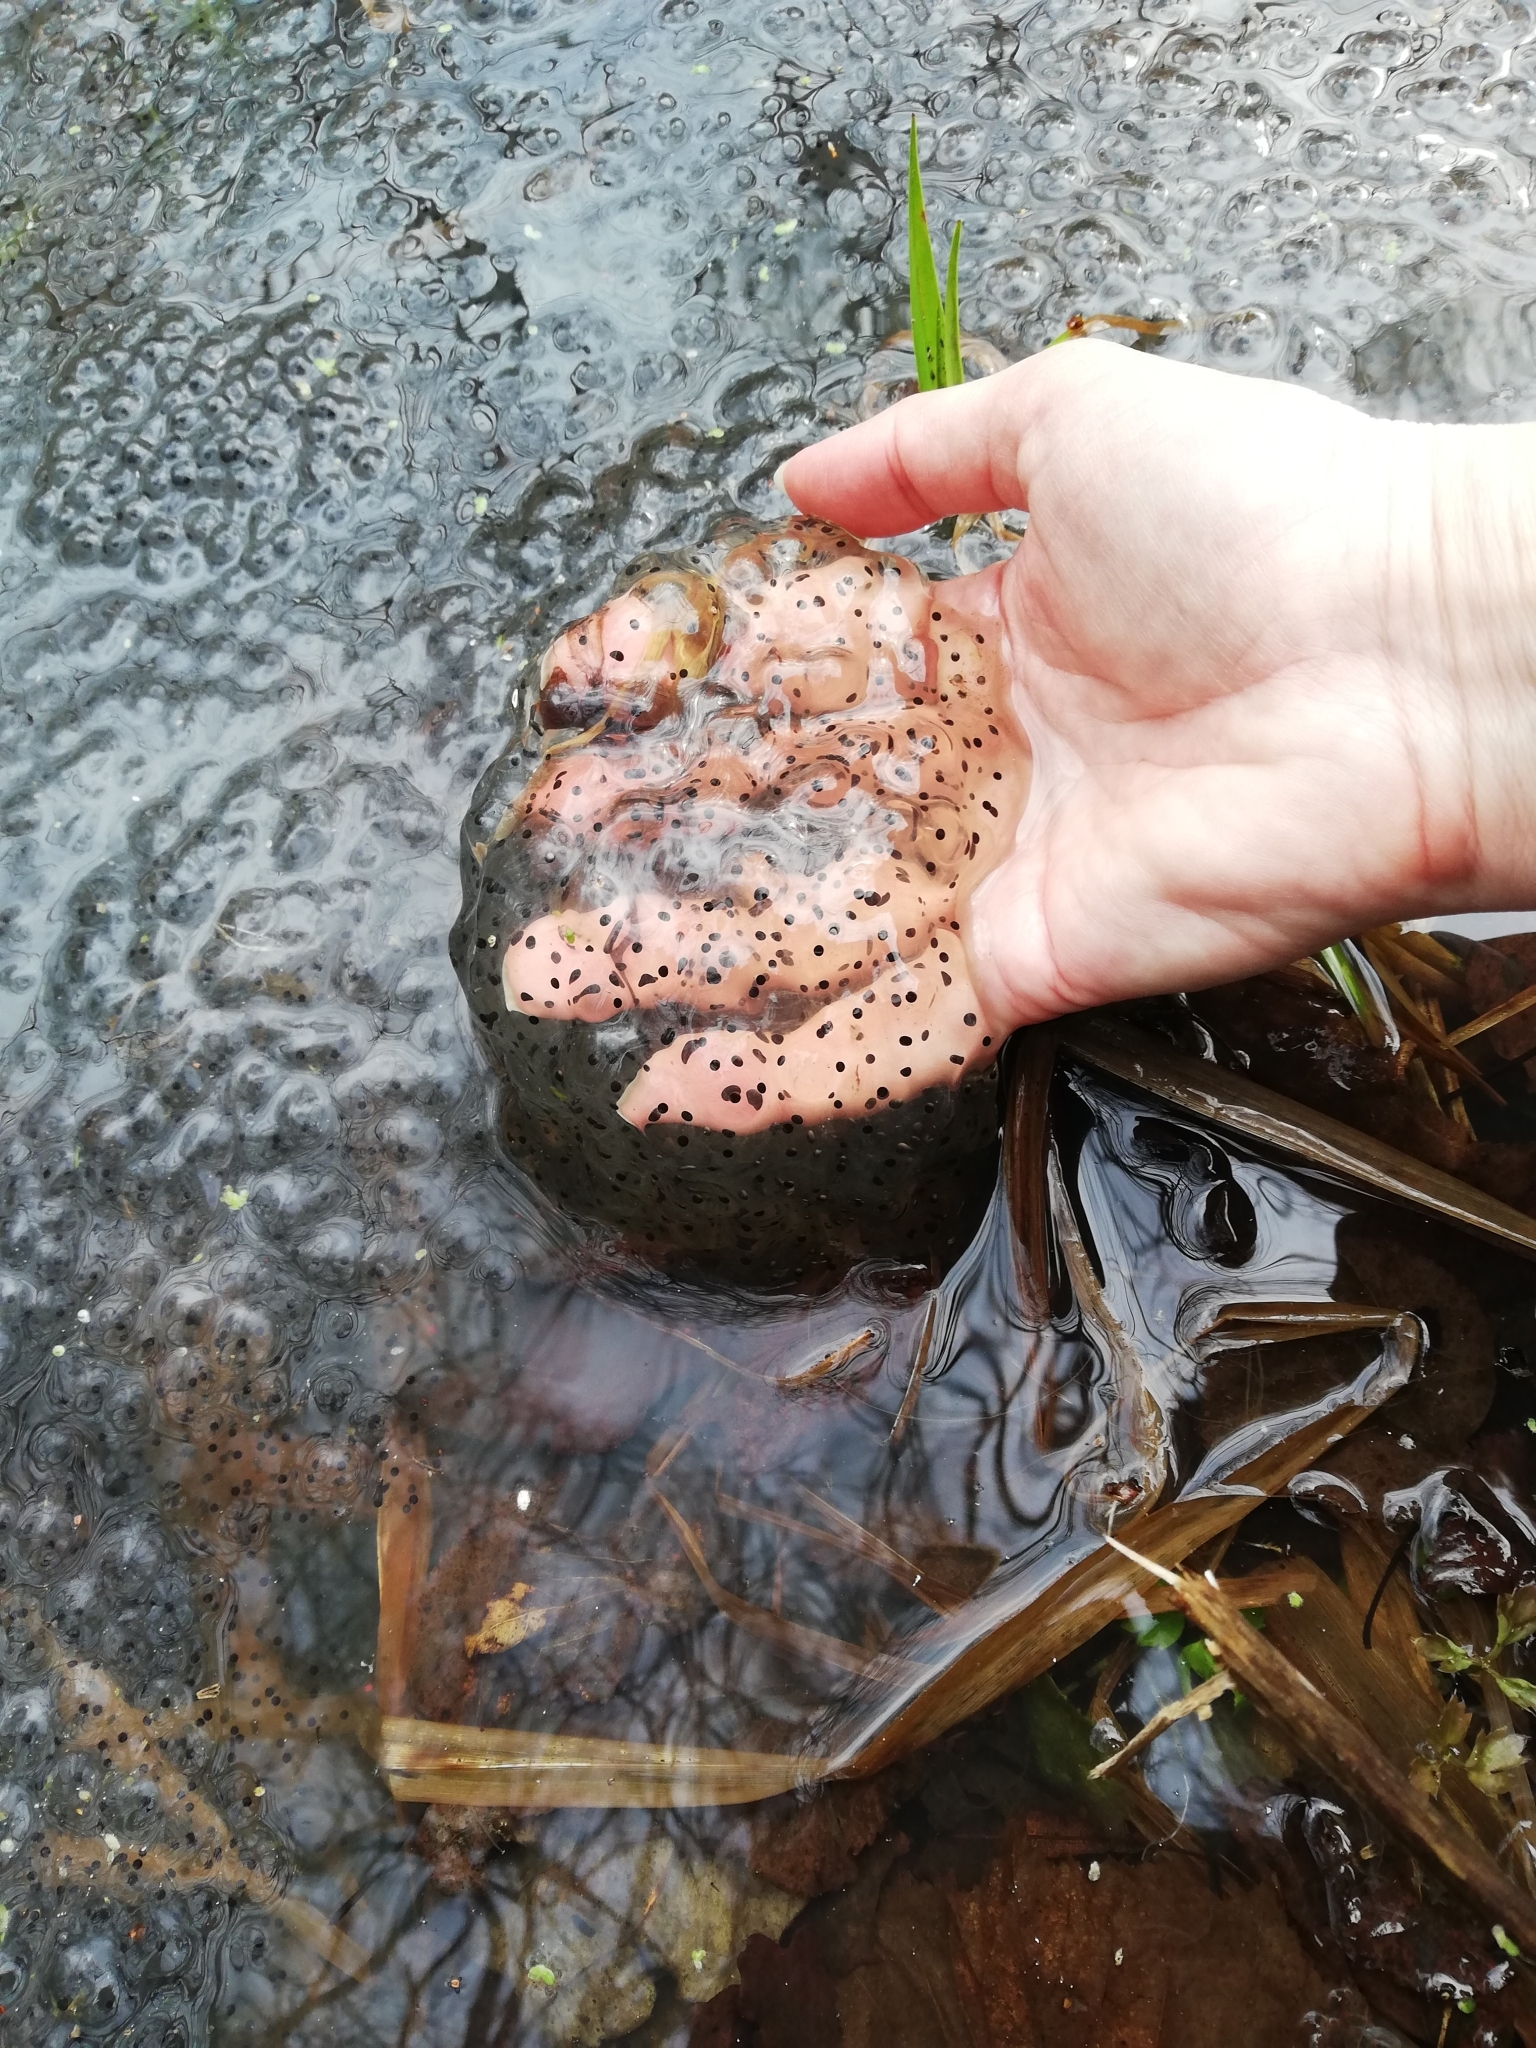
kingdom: Animalia
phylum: Chordata
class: Amphibia
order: Anura
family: Ranidae
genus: Rana
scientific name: Rana temporaria
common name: Common frog
